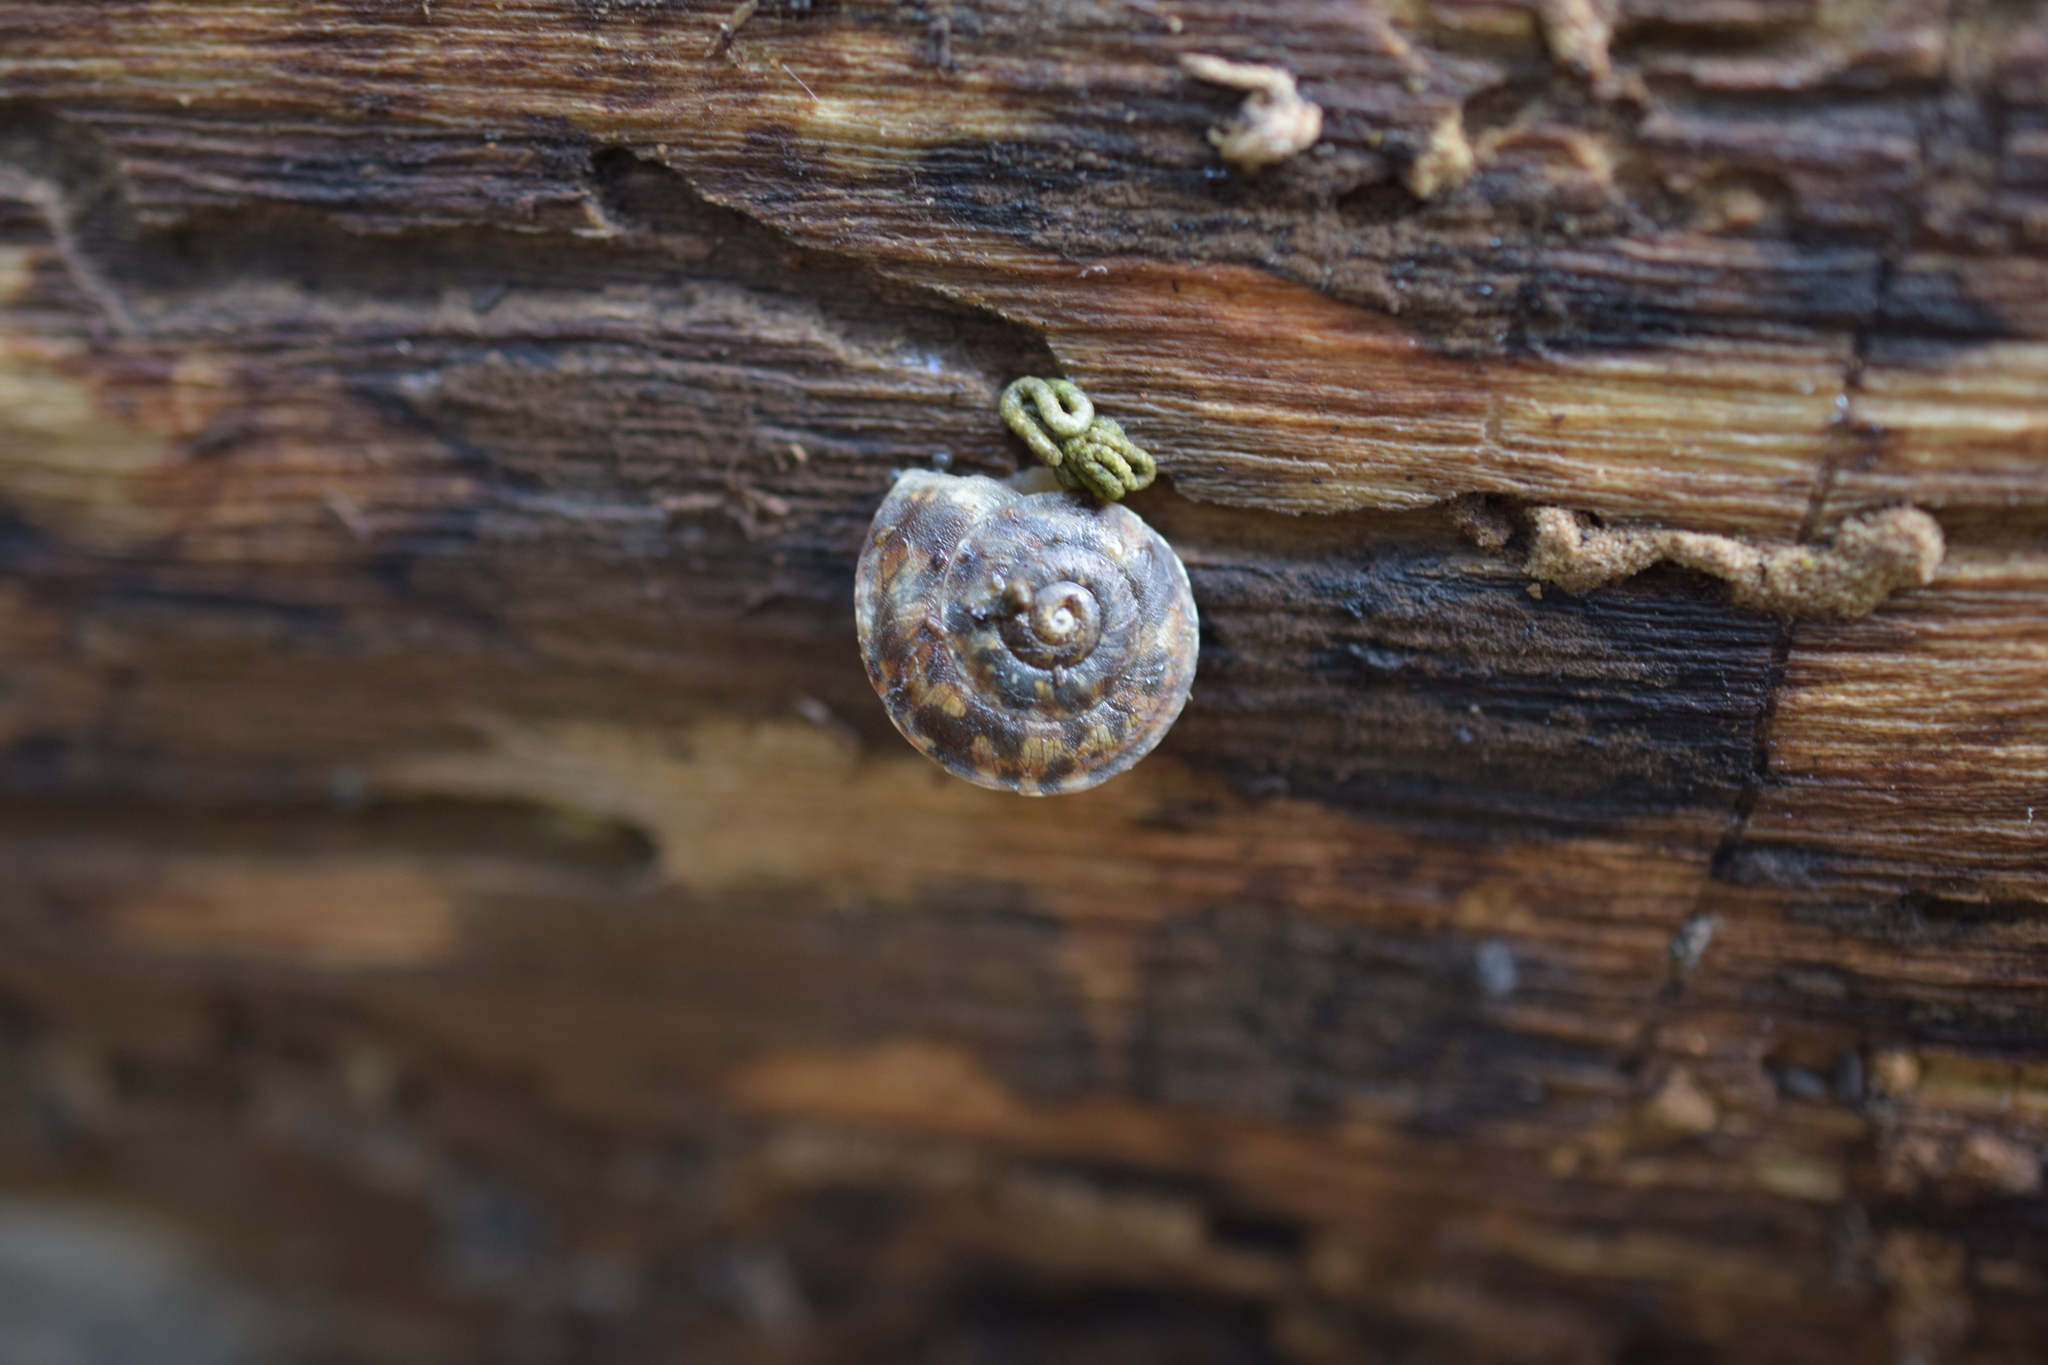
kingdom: Animalia
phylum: Mollusca
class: Gastropoda
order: Stylommatophora
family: Helicidae
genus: Helicigona
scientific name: Helicigona lapicida
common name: Lapidary snail
